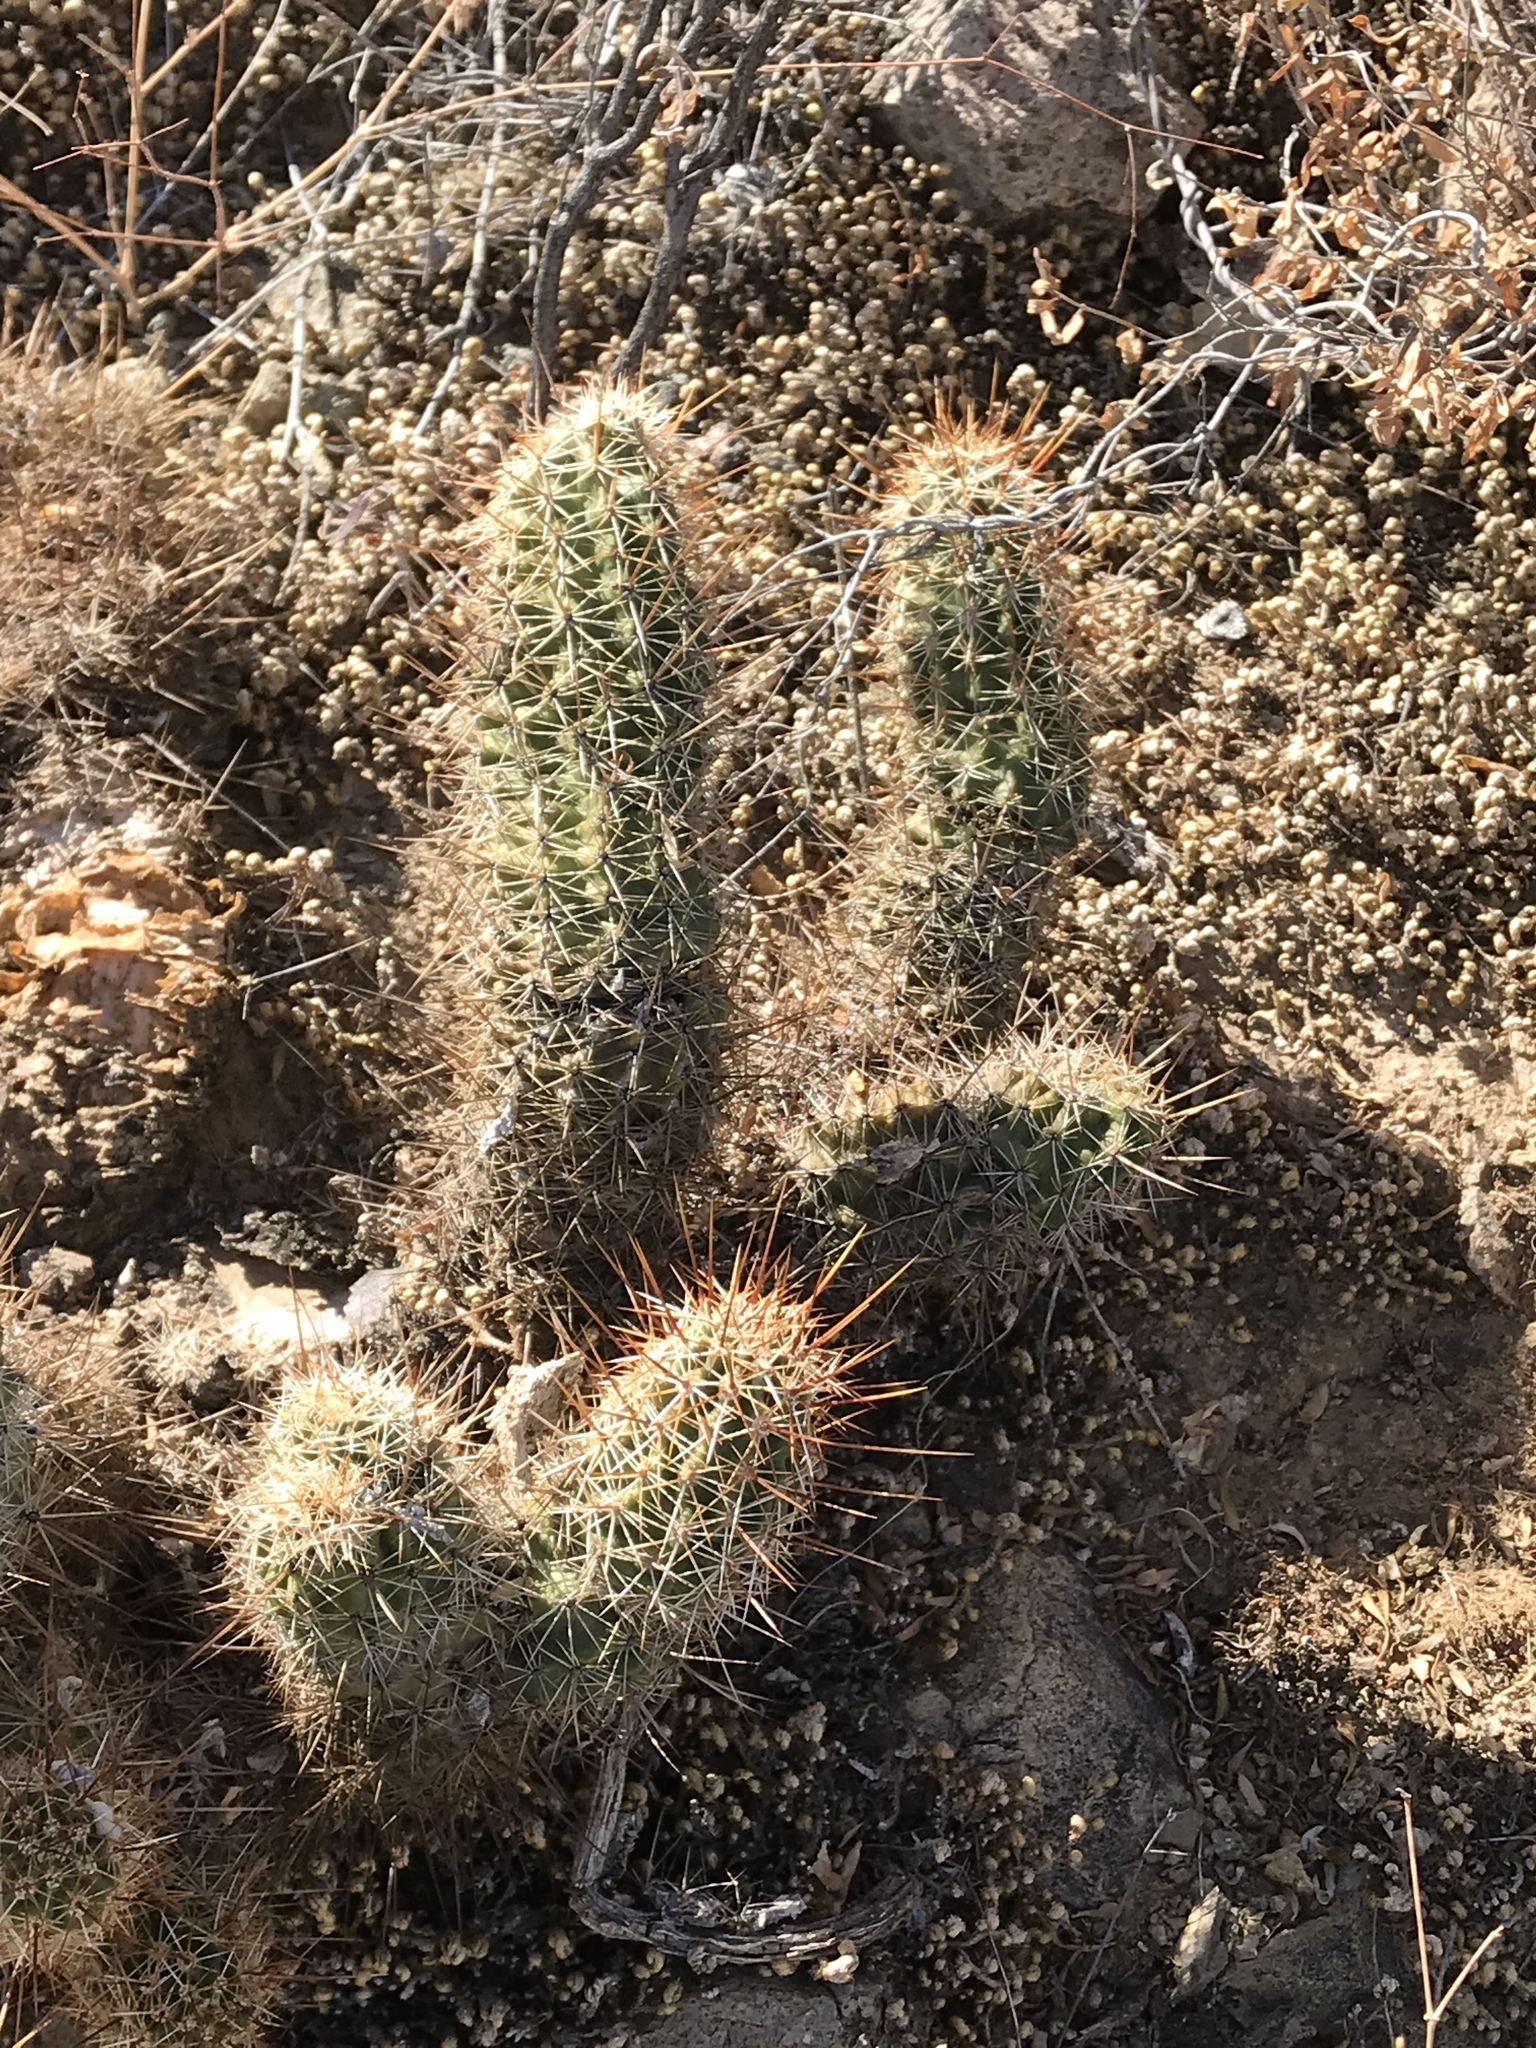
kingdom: Plantae
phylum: Tracheophyta
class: Magnoliopsida
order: Caryophyllales
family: Cactaceae
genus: Echinocereus
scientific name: Echinocereus fasciculatus
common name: Bundle hedgehog
